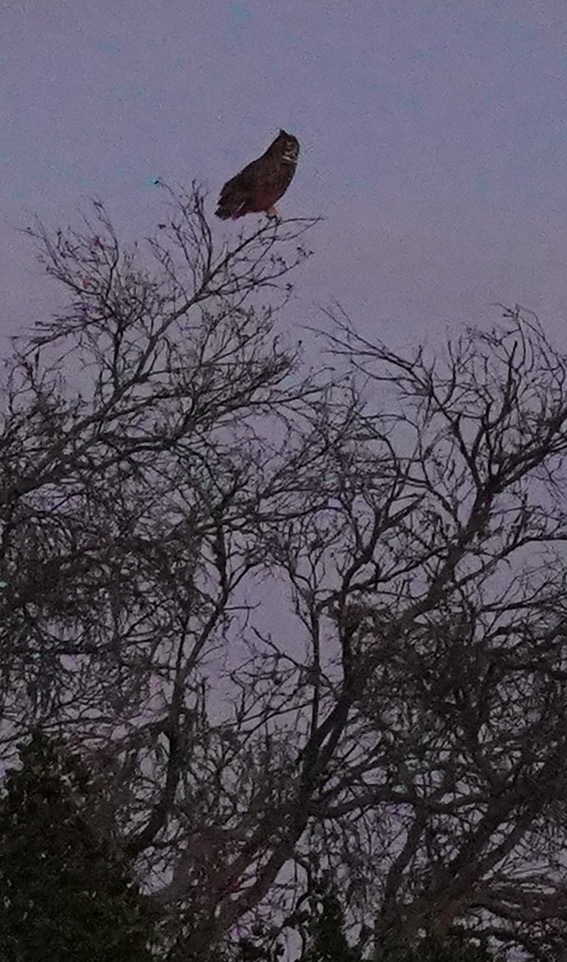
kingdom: Animalia
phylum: Chordata
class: Aves
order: Strigiformes
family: Strigidae
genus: Bubo
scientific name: Bubo virginianus
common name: Great horned owl
